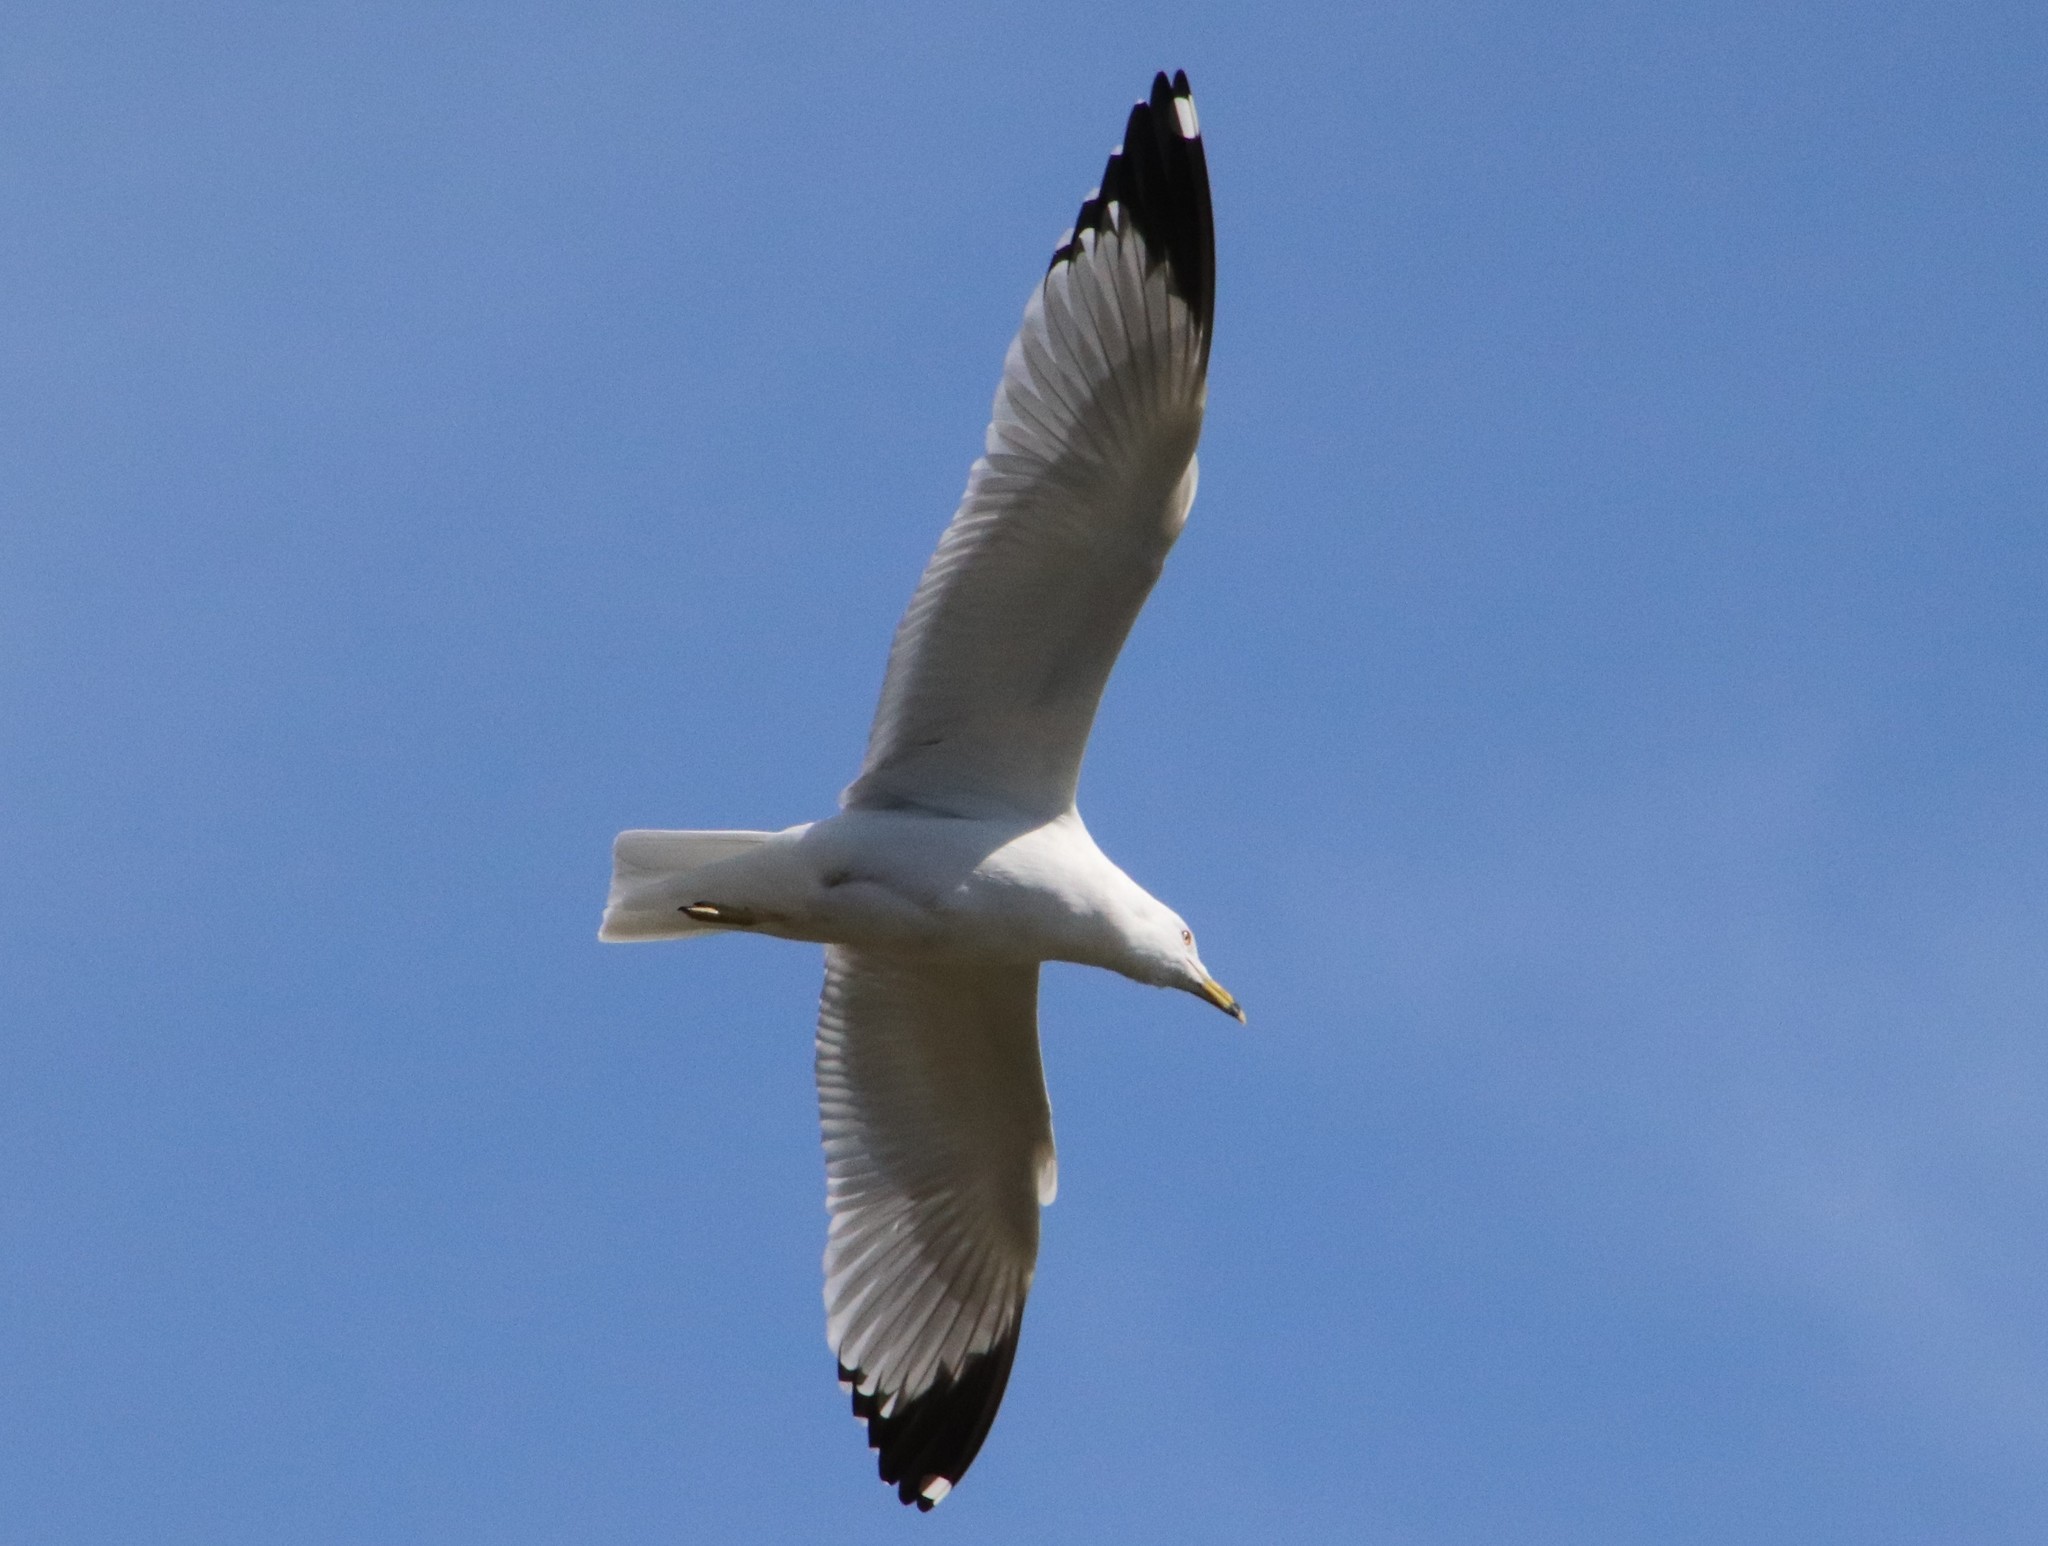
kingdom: Animalia
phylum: Chordata
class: Aves
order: Charadriiformes
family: Laridae
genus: Larus
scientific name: Larus delawarensis
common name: Ring-billed gull
